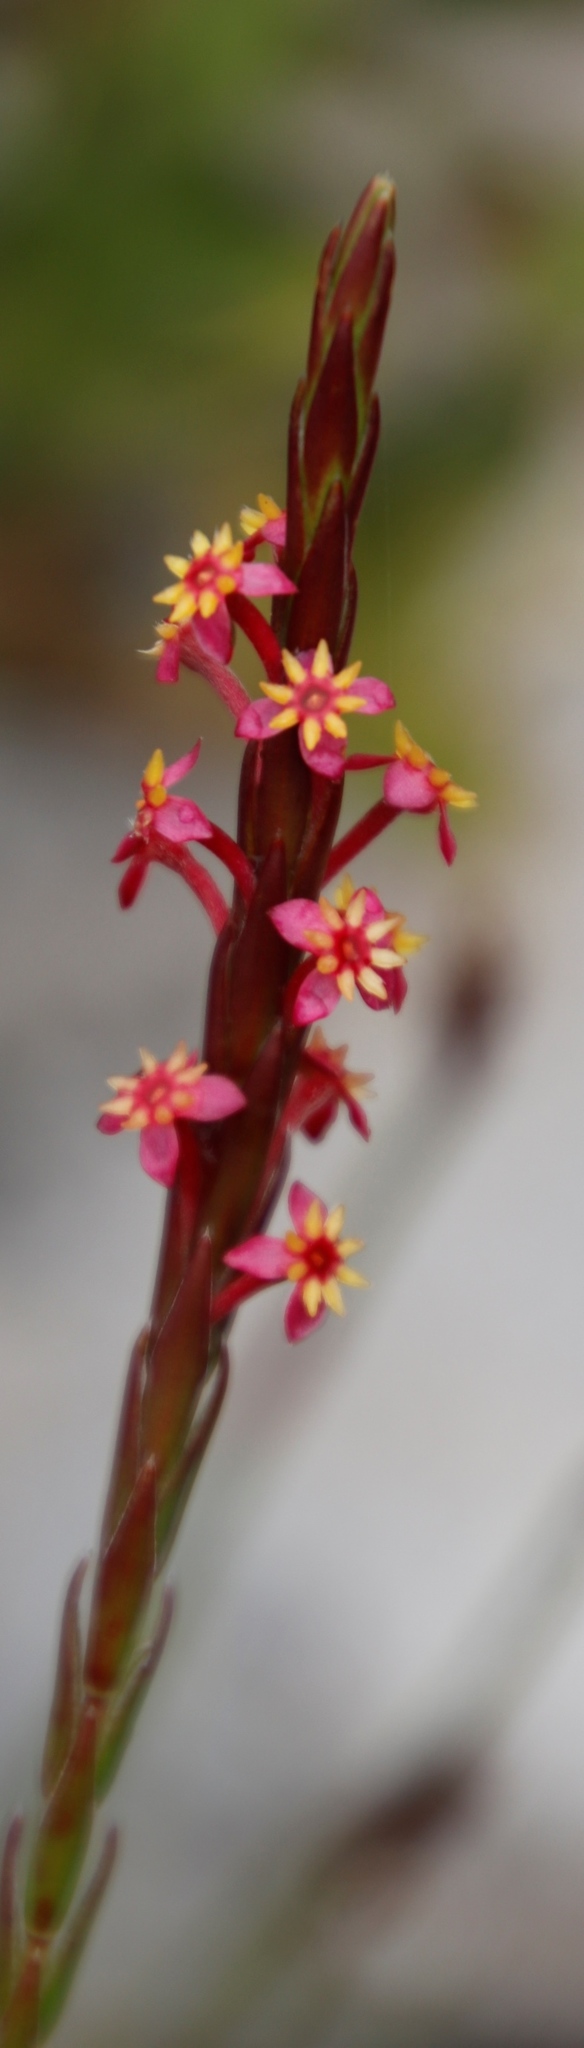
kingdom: Plantae
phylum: Tracheophyta
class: Magnoliopsida
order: Malvales
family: Thymelaeaceae
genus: Struthiola
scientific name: Struthiola ciliata
